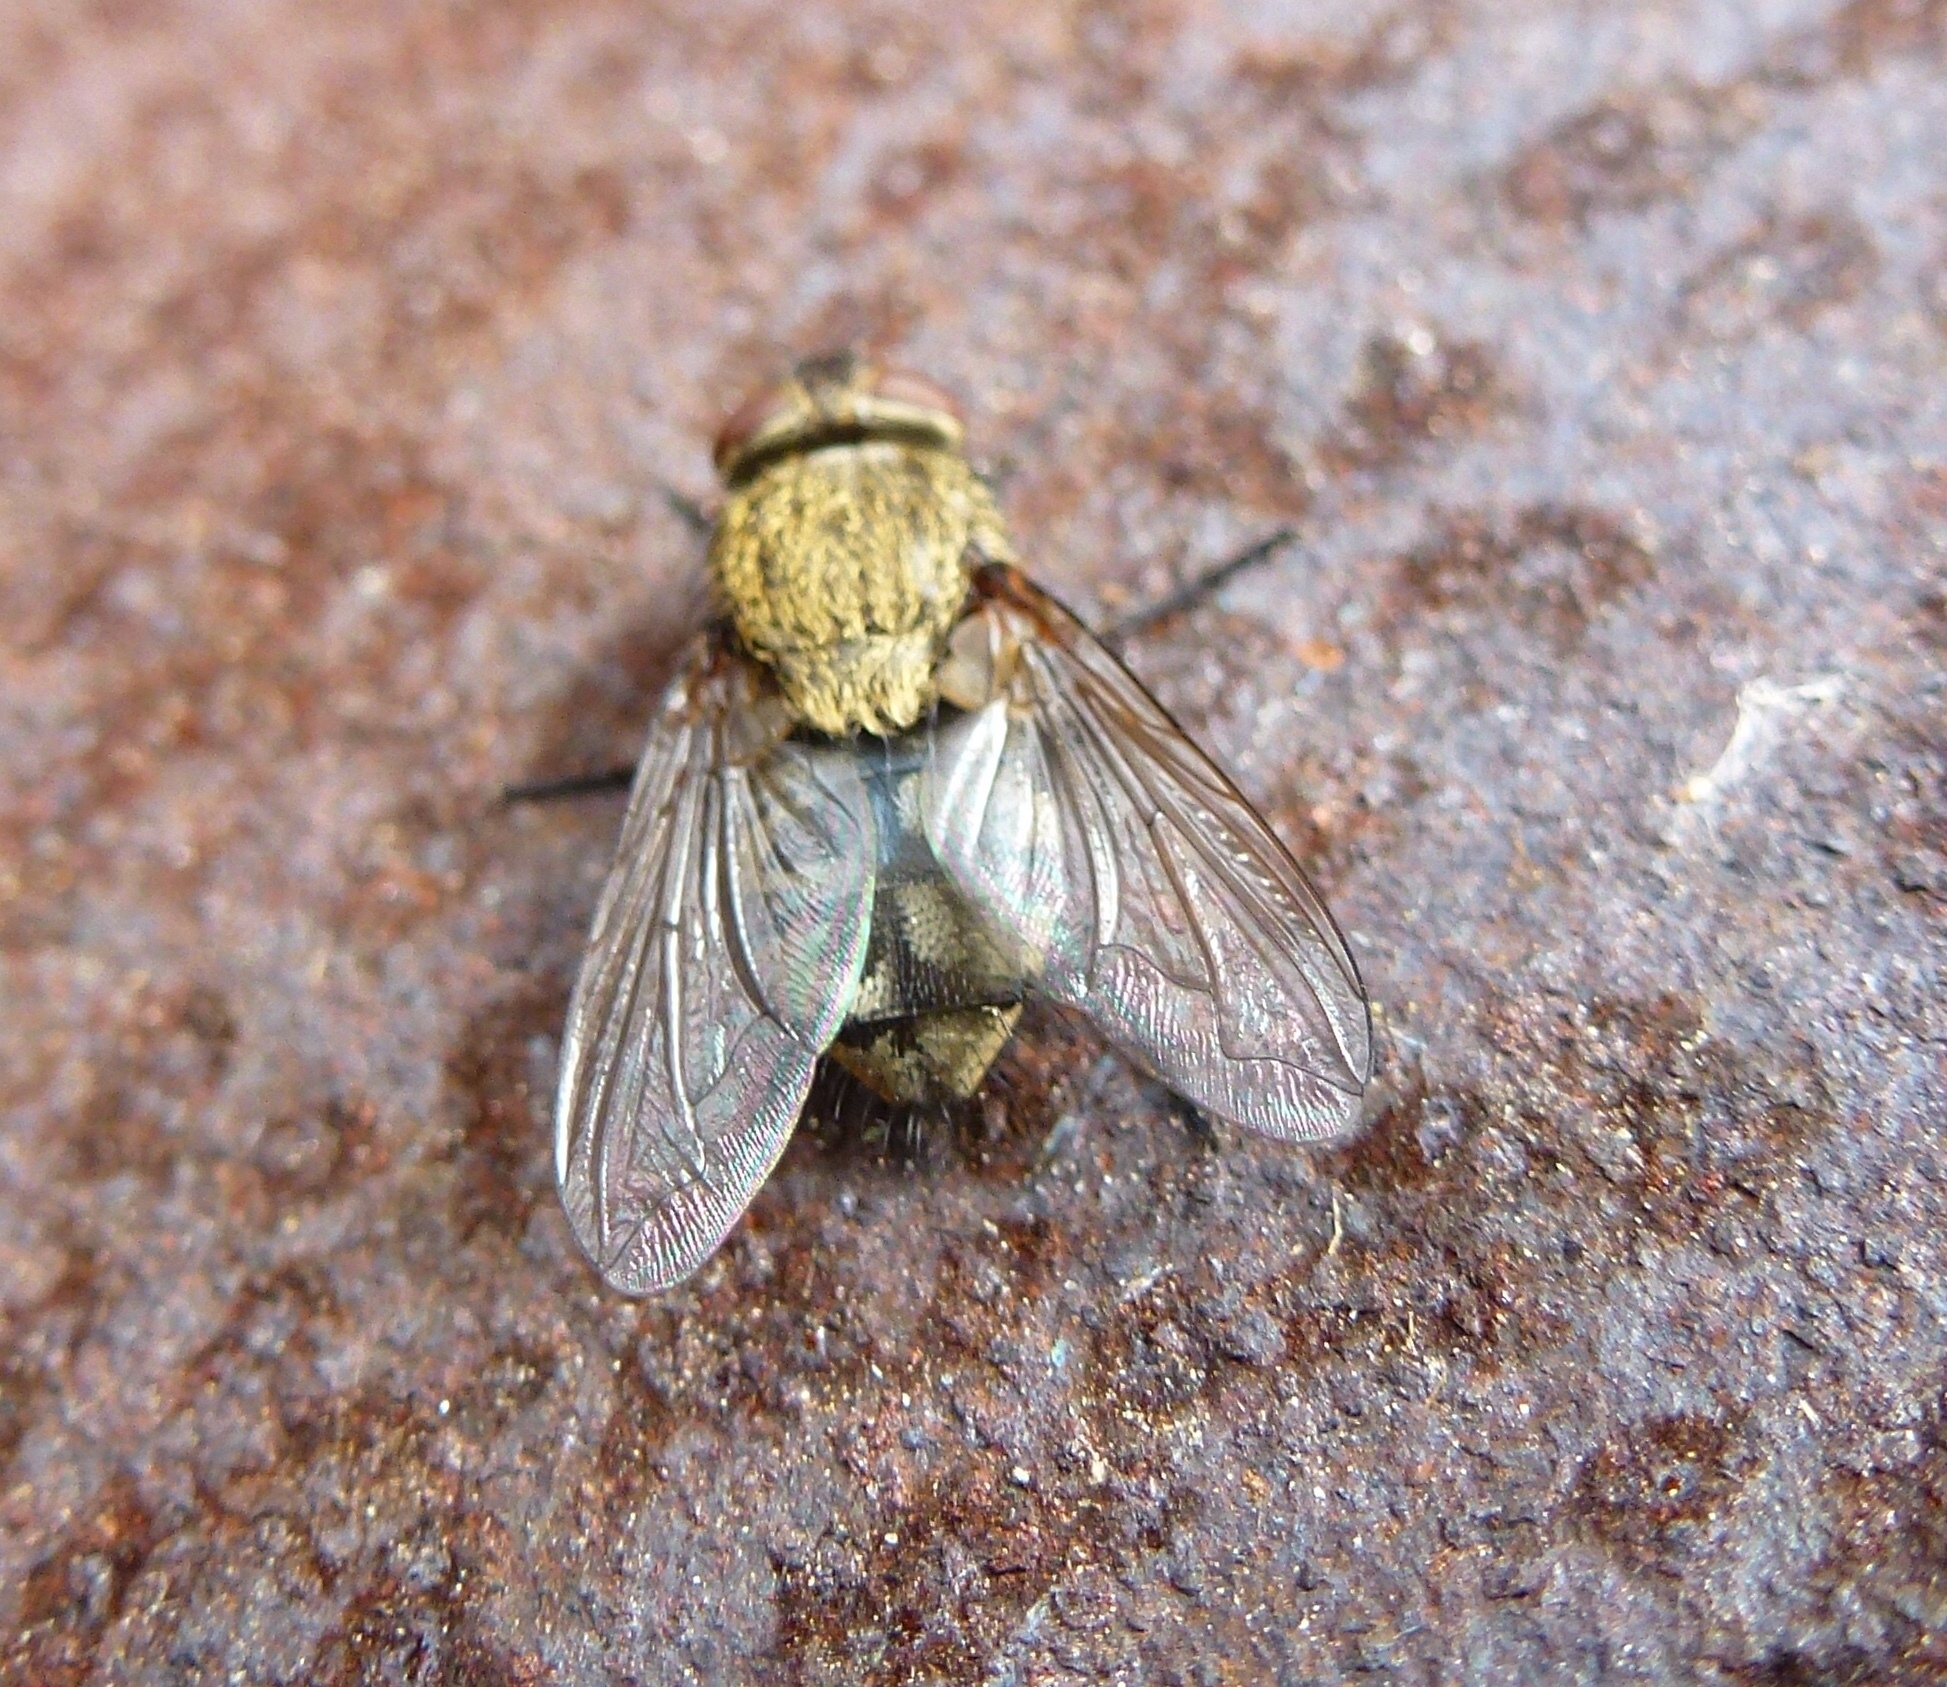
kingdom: Animalia
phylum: Arthropoda
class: Insecta
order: Diptera
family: Polleniidae
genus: Pollenia
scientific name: Pollenia
